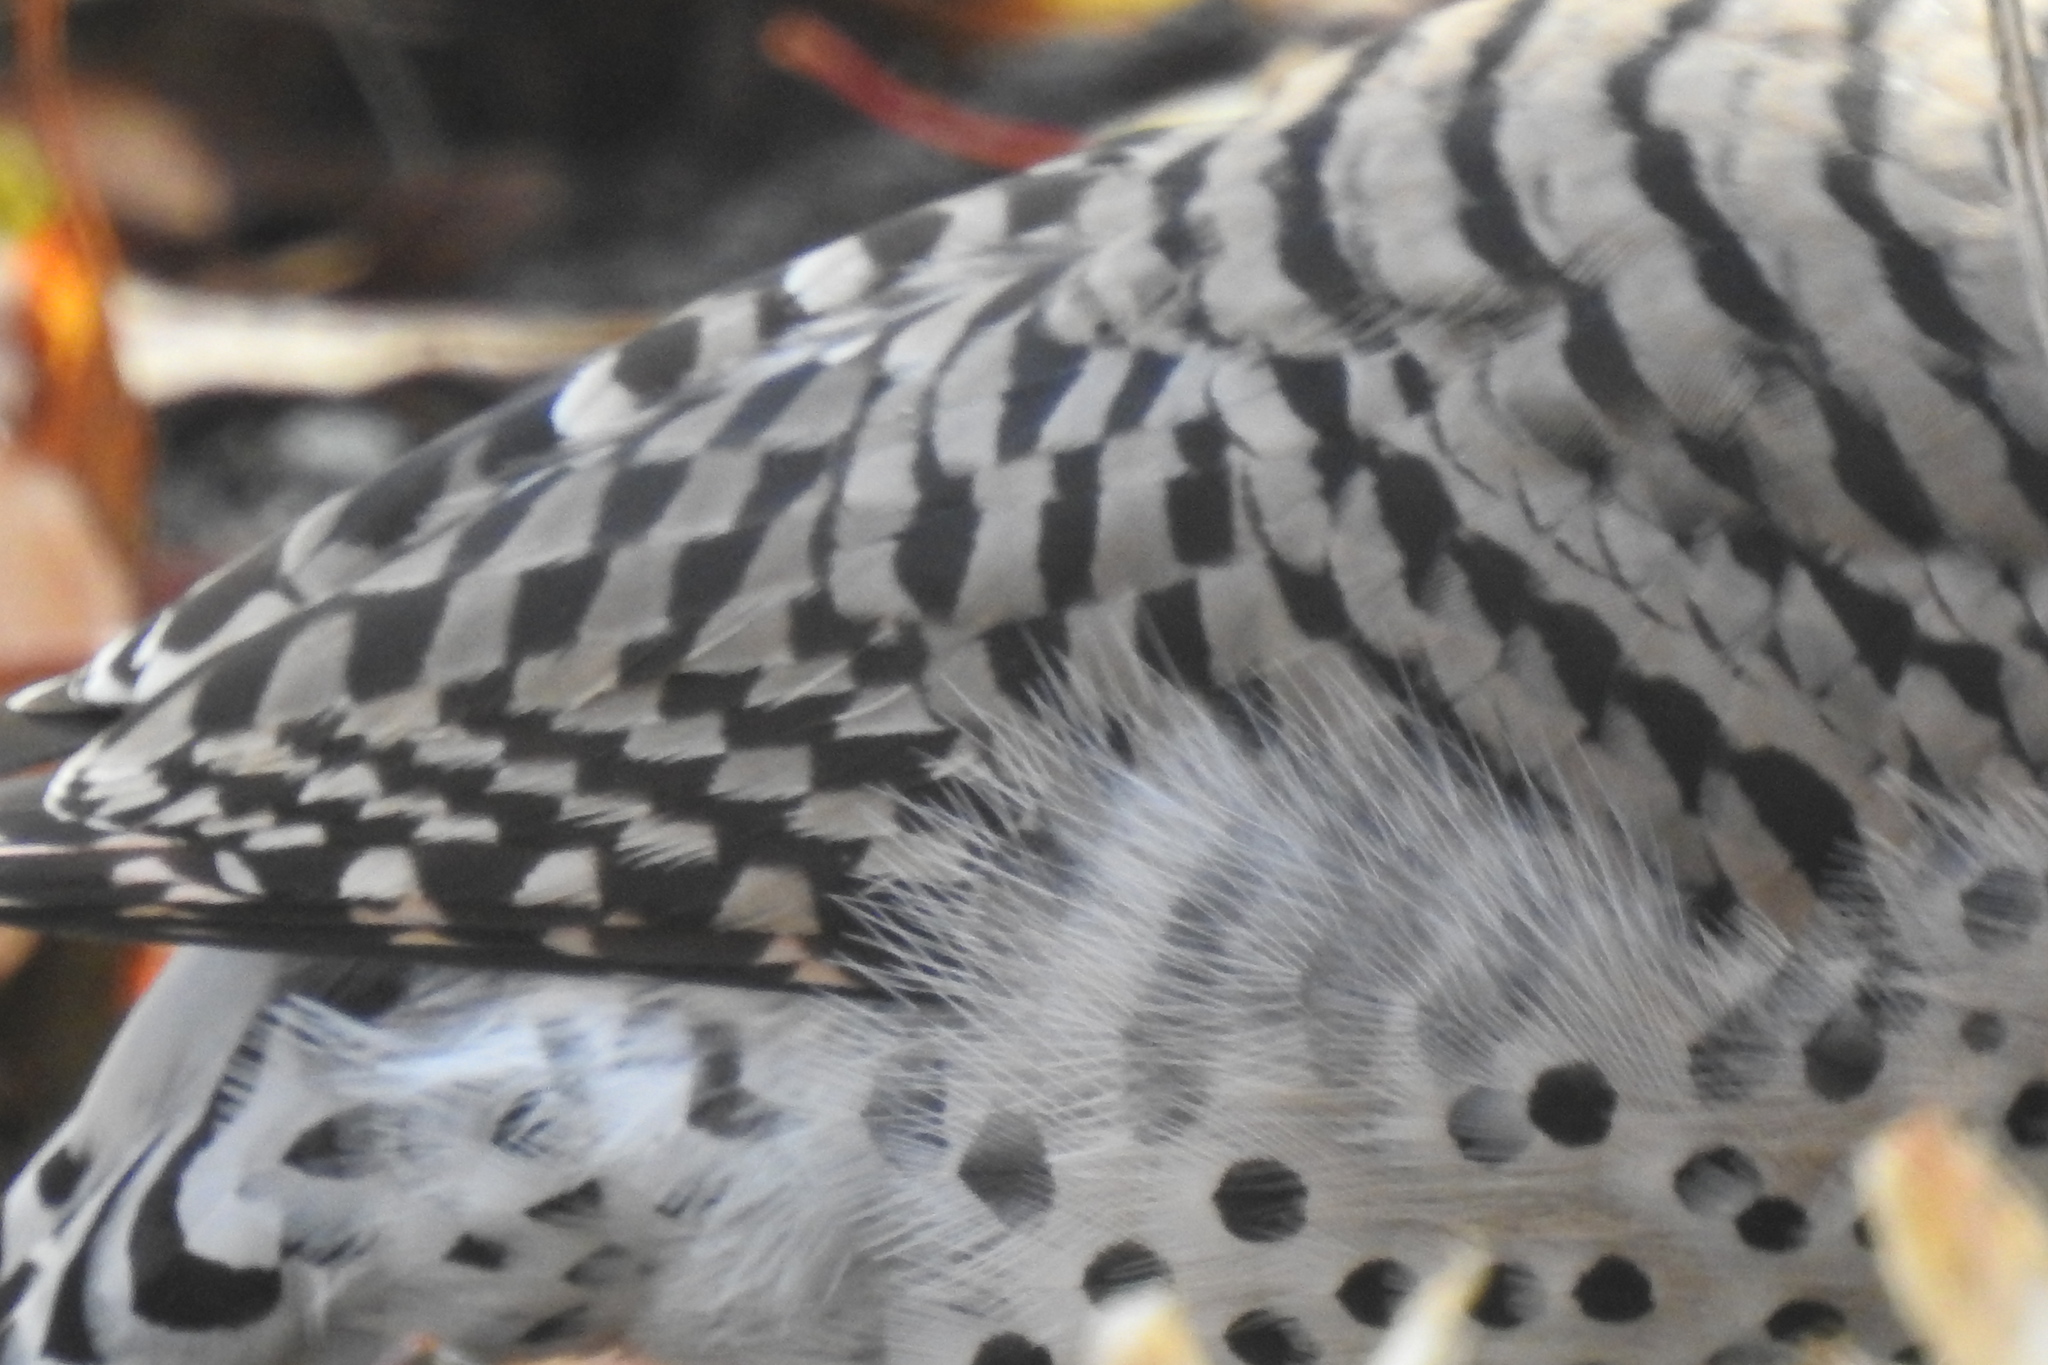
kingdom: Animalia
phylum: Chordata
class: Aves
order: Piciformes
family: Picidae
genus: Colaptes
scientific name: Colaptes auratus
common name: Northern flicker
